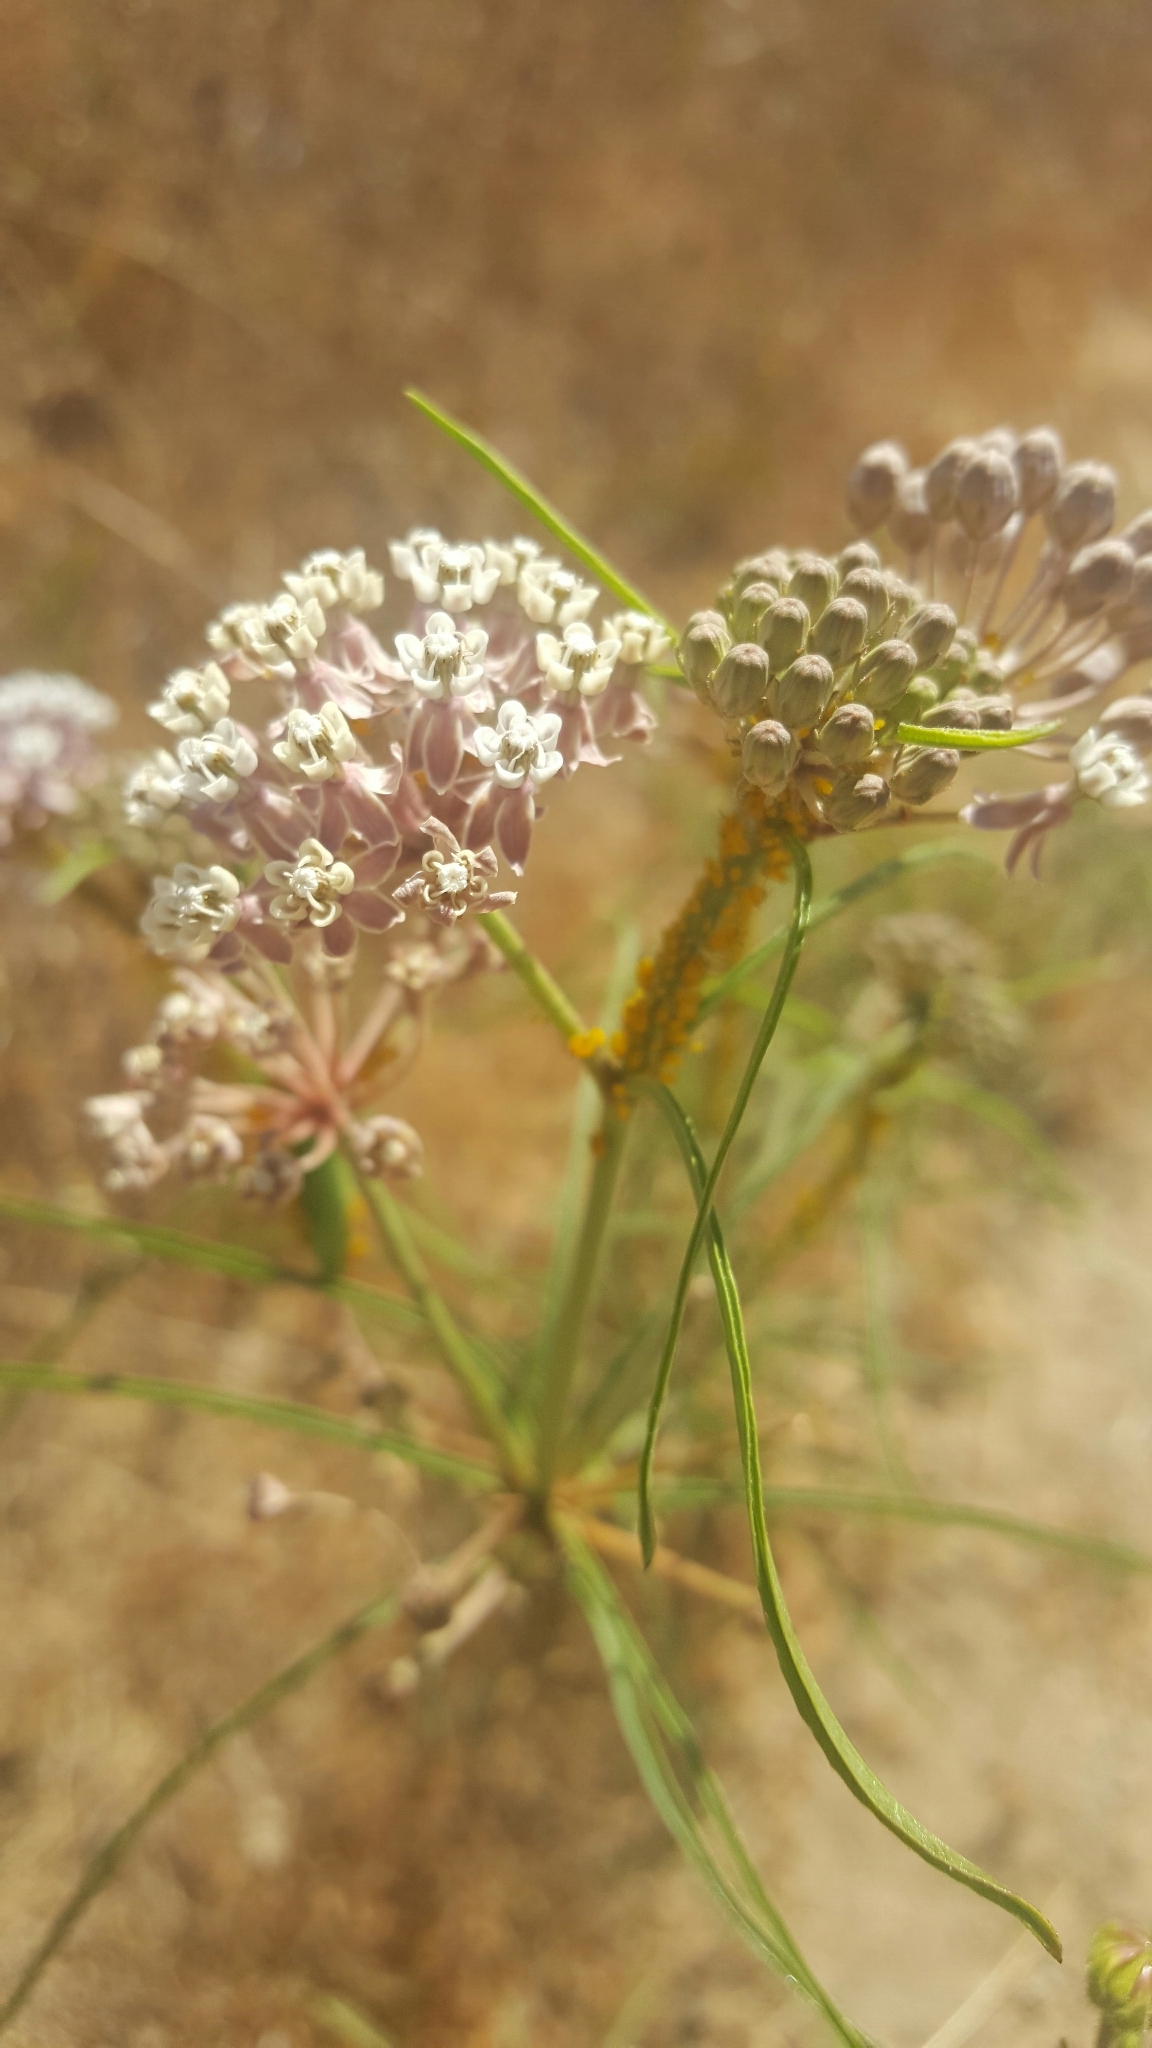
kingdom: Plantae
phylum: Tracheophyta
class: Magnoliopsida
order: Gentianales
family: Apocynaceae
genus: Asclepias
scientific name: Asclepias fascicularis
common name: Mexican milkweed
